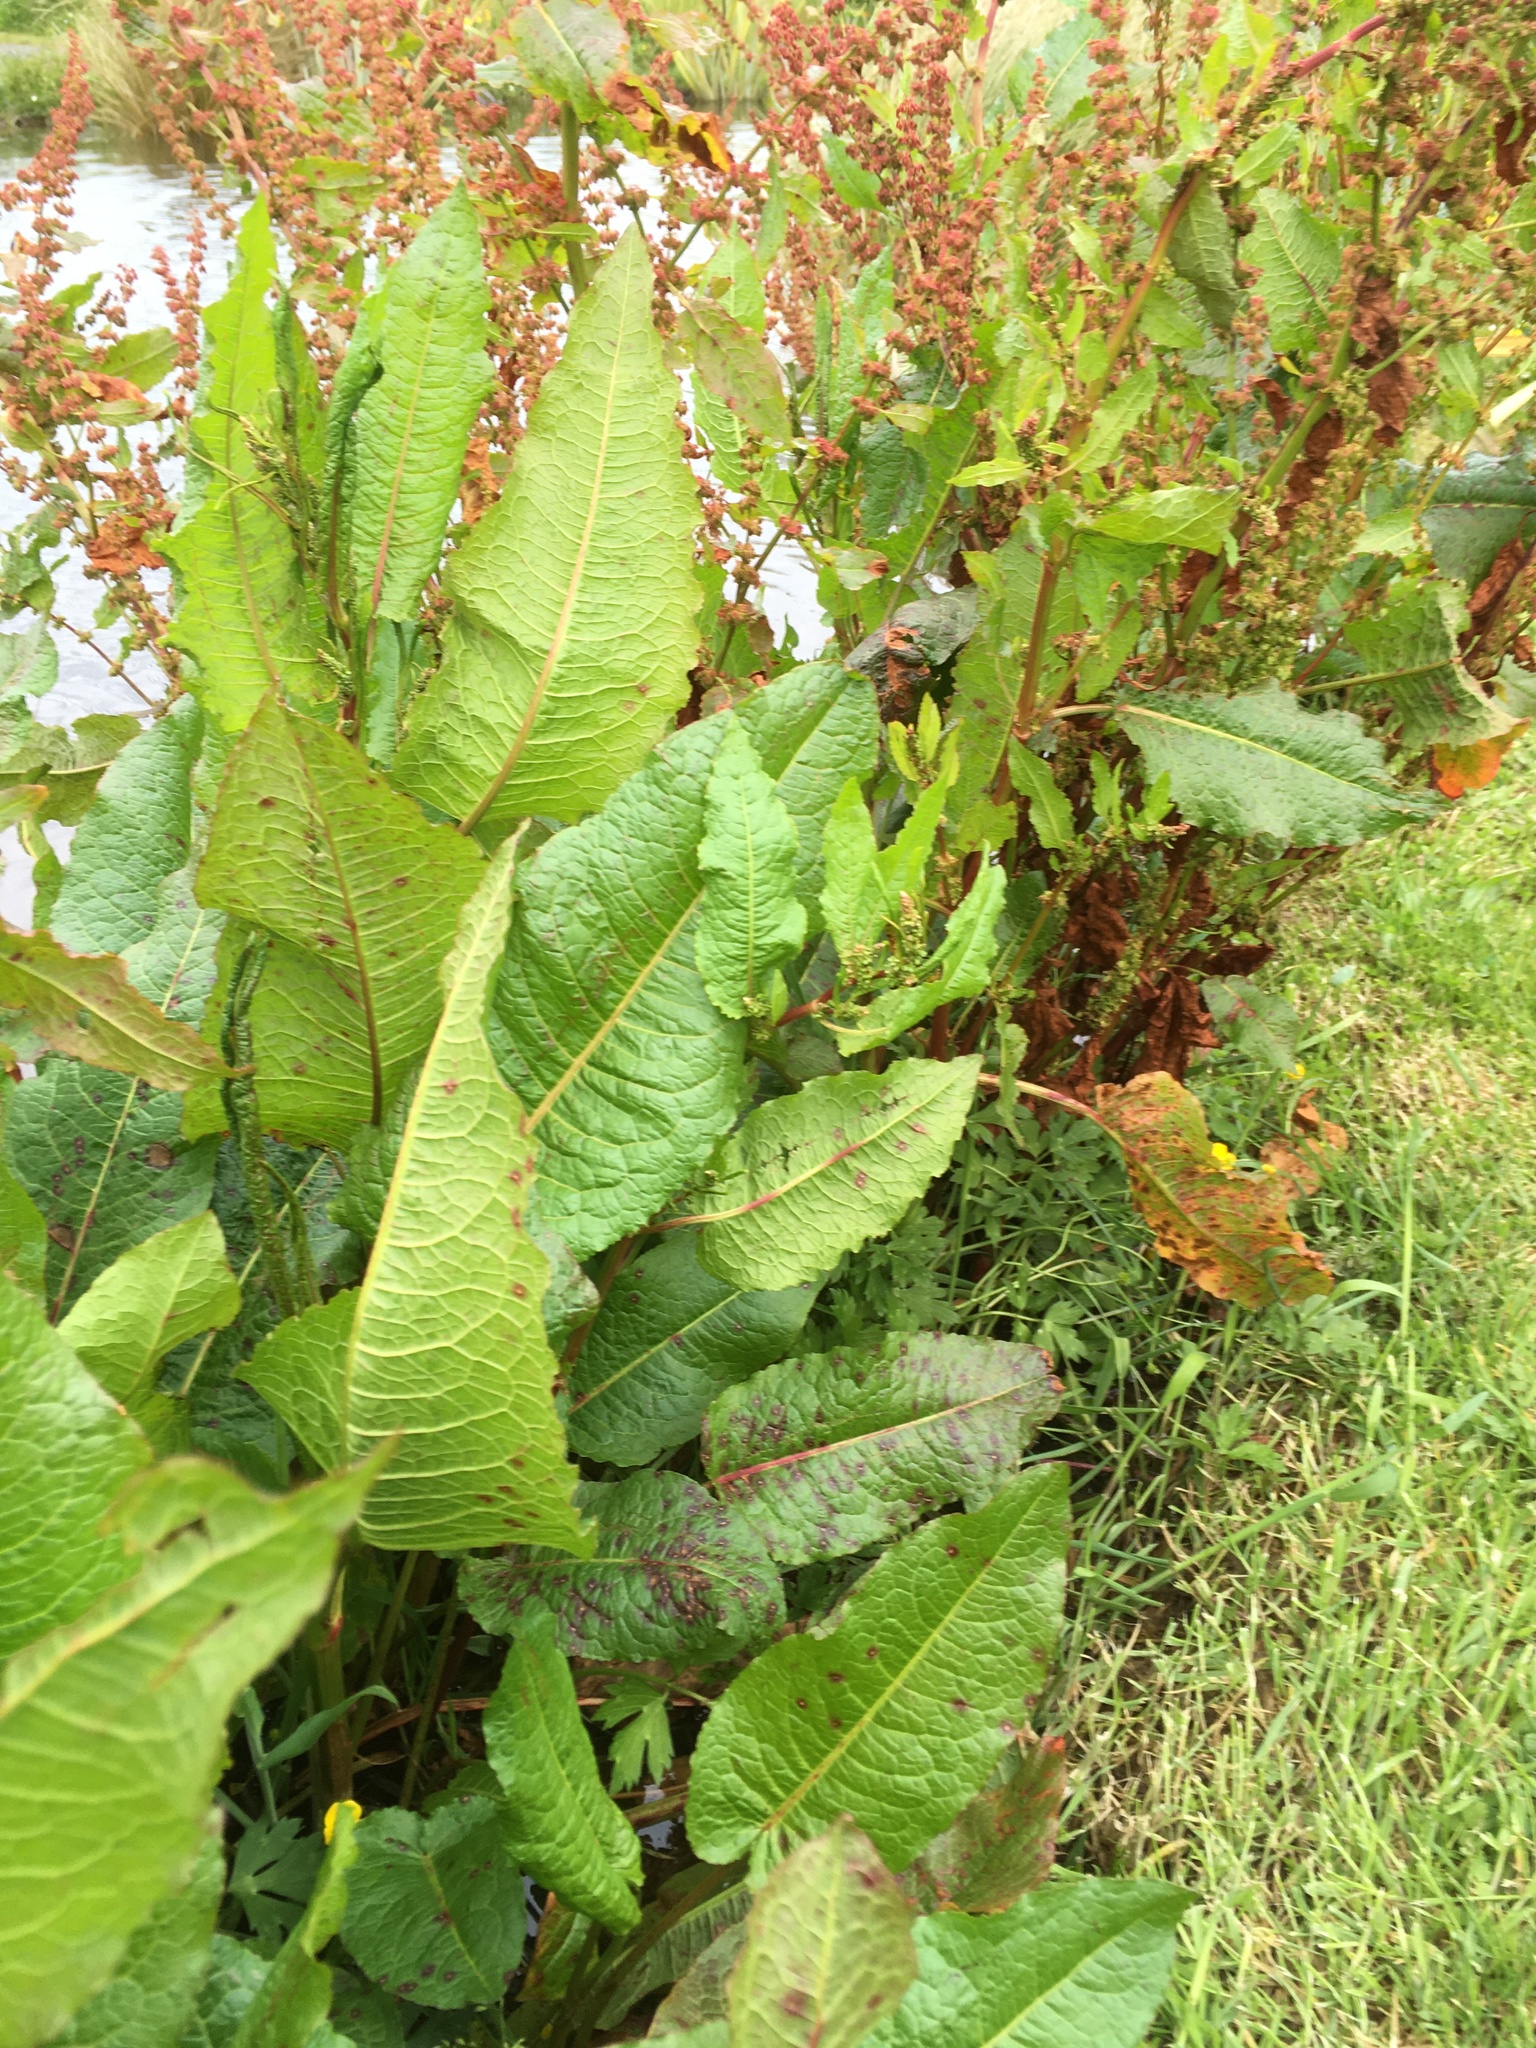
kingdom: Plantae
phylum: Tracheophyta
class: Magnoliopsida
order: Caryophyllales
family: Polygonaceae
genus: Rumex
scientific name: Rumex obtusifolius
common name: Bitter dock
